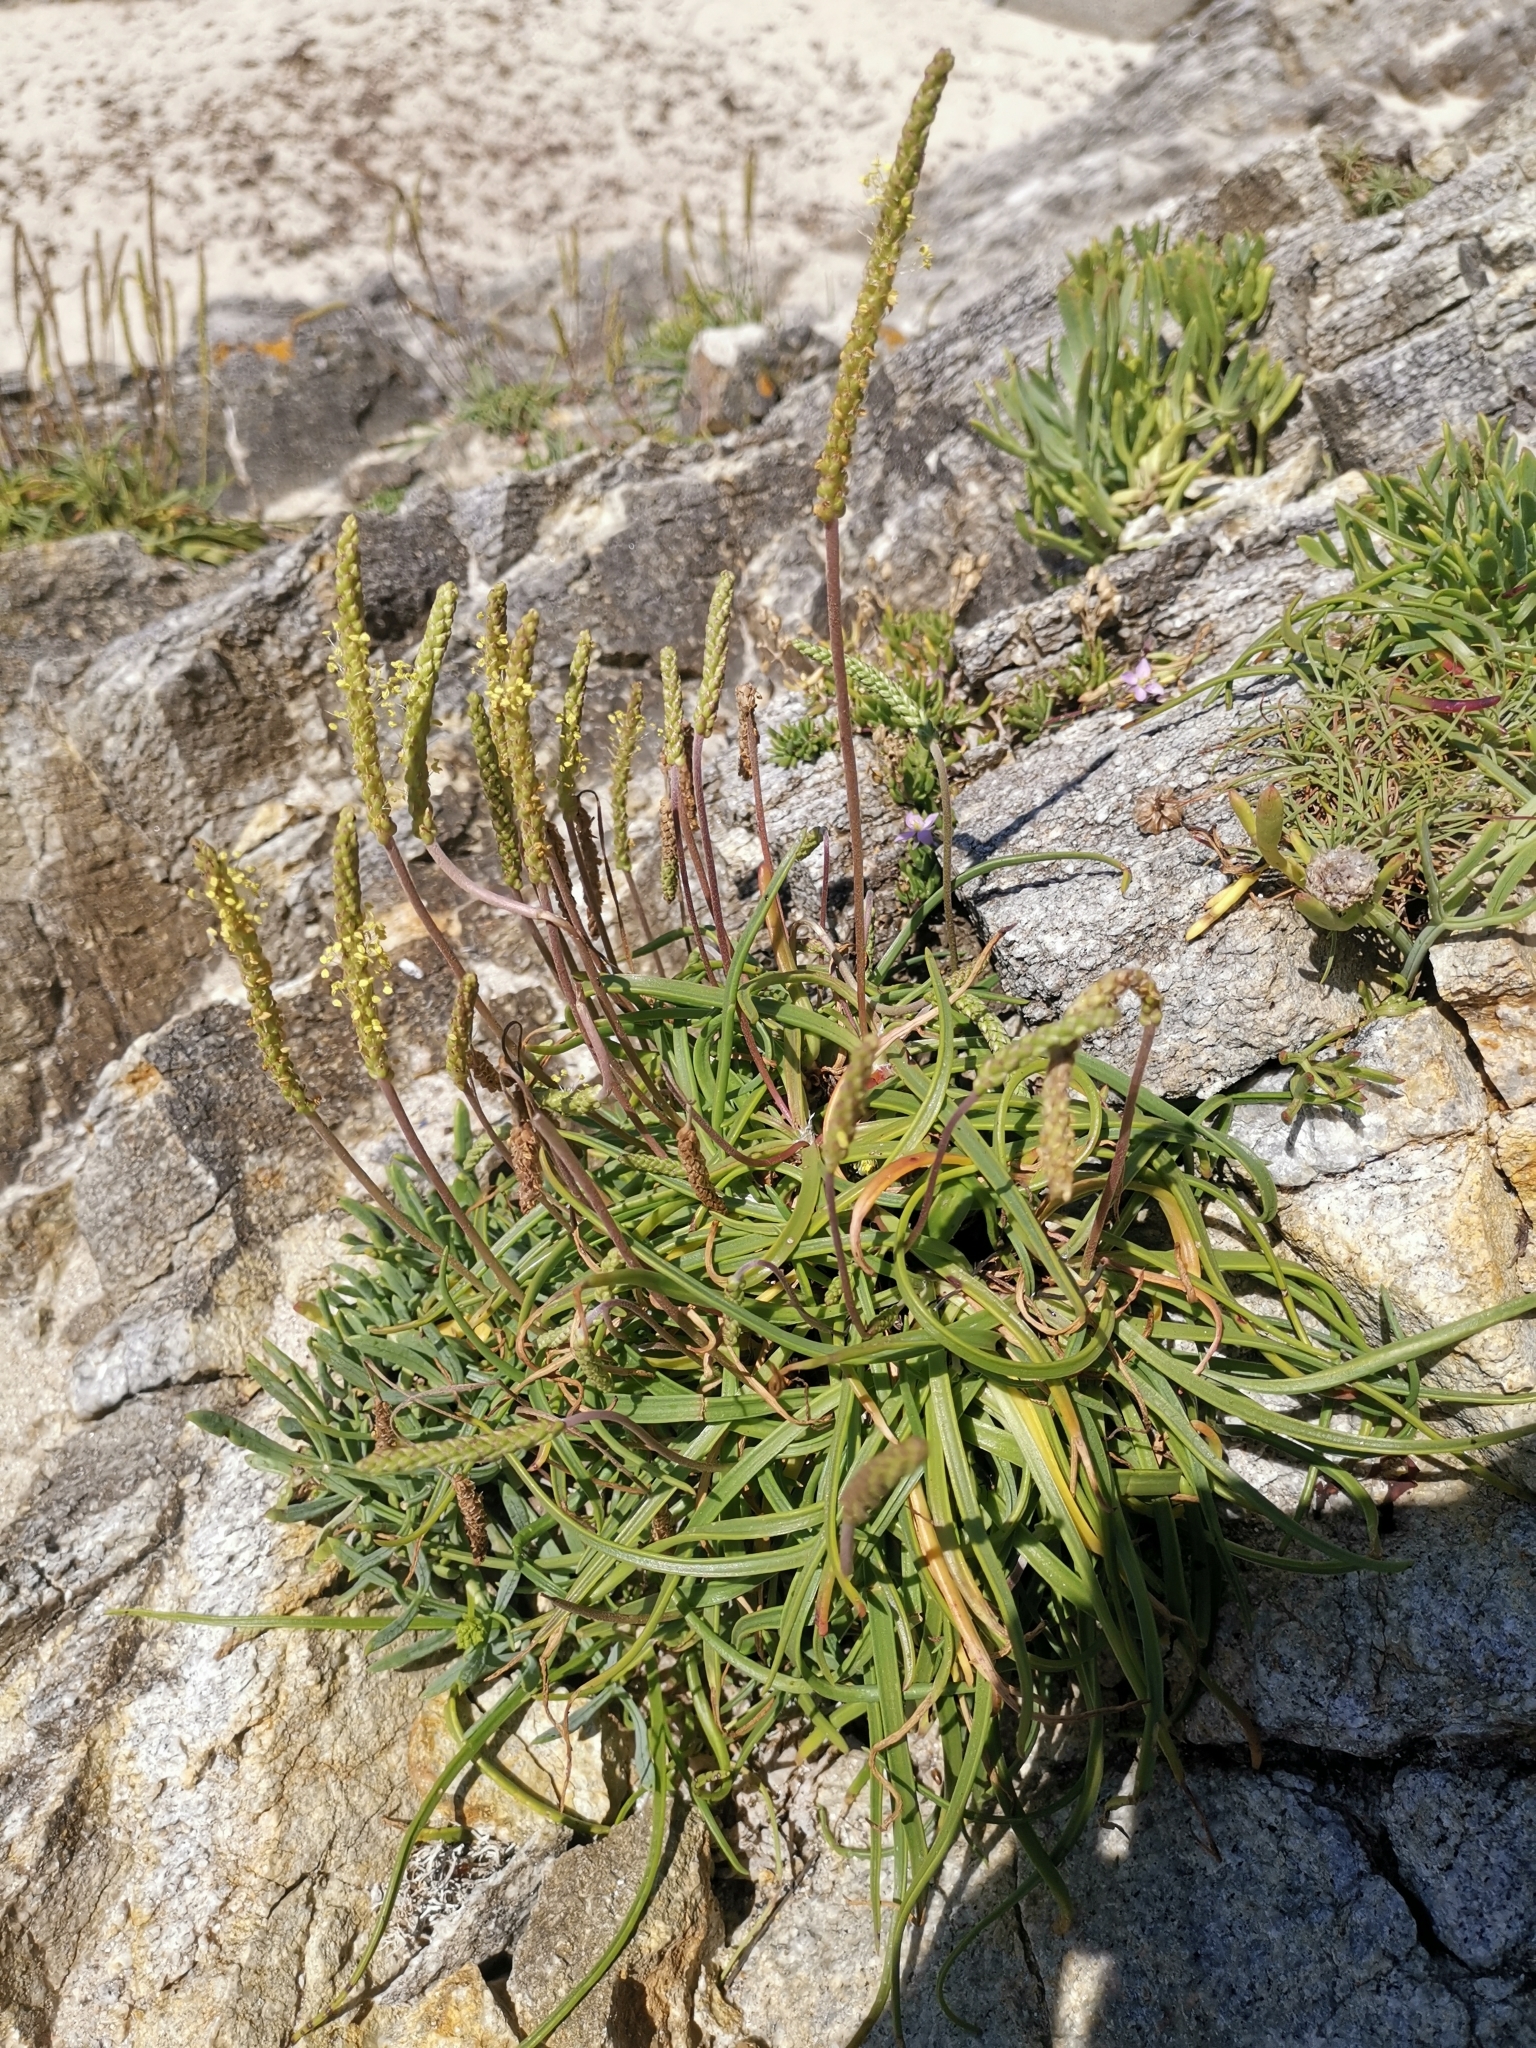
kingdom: Plantae
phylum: Tracheophyta
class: Magnoliopsida
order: Lamiales
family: Plantaginaceae
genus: Plantago
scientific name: Plantago maritima
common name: Sea plantain
